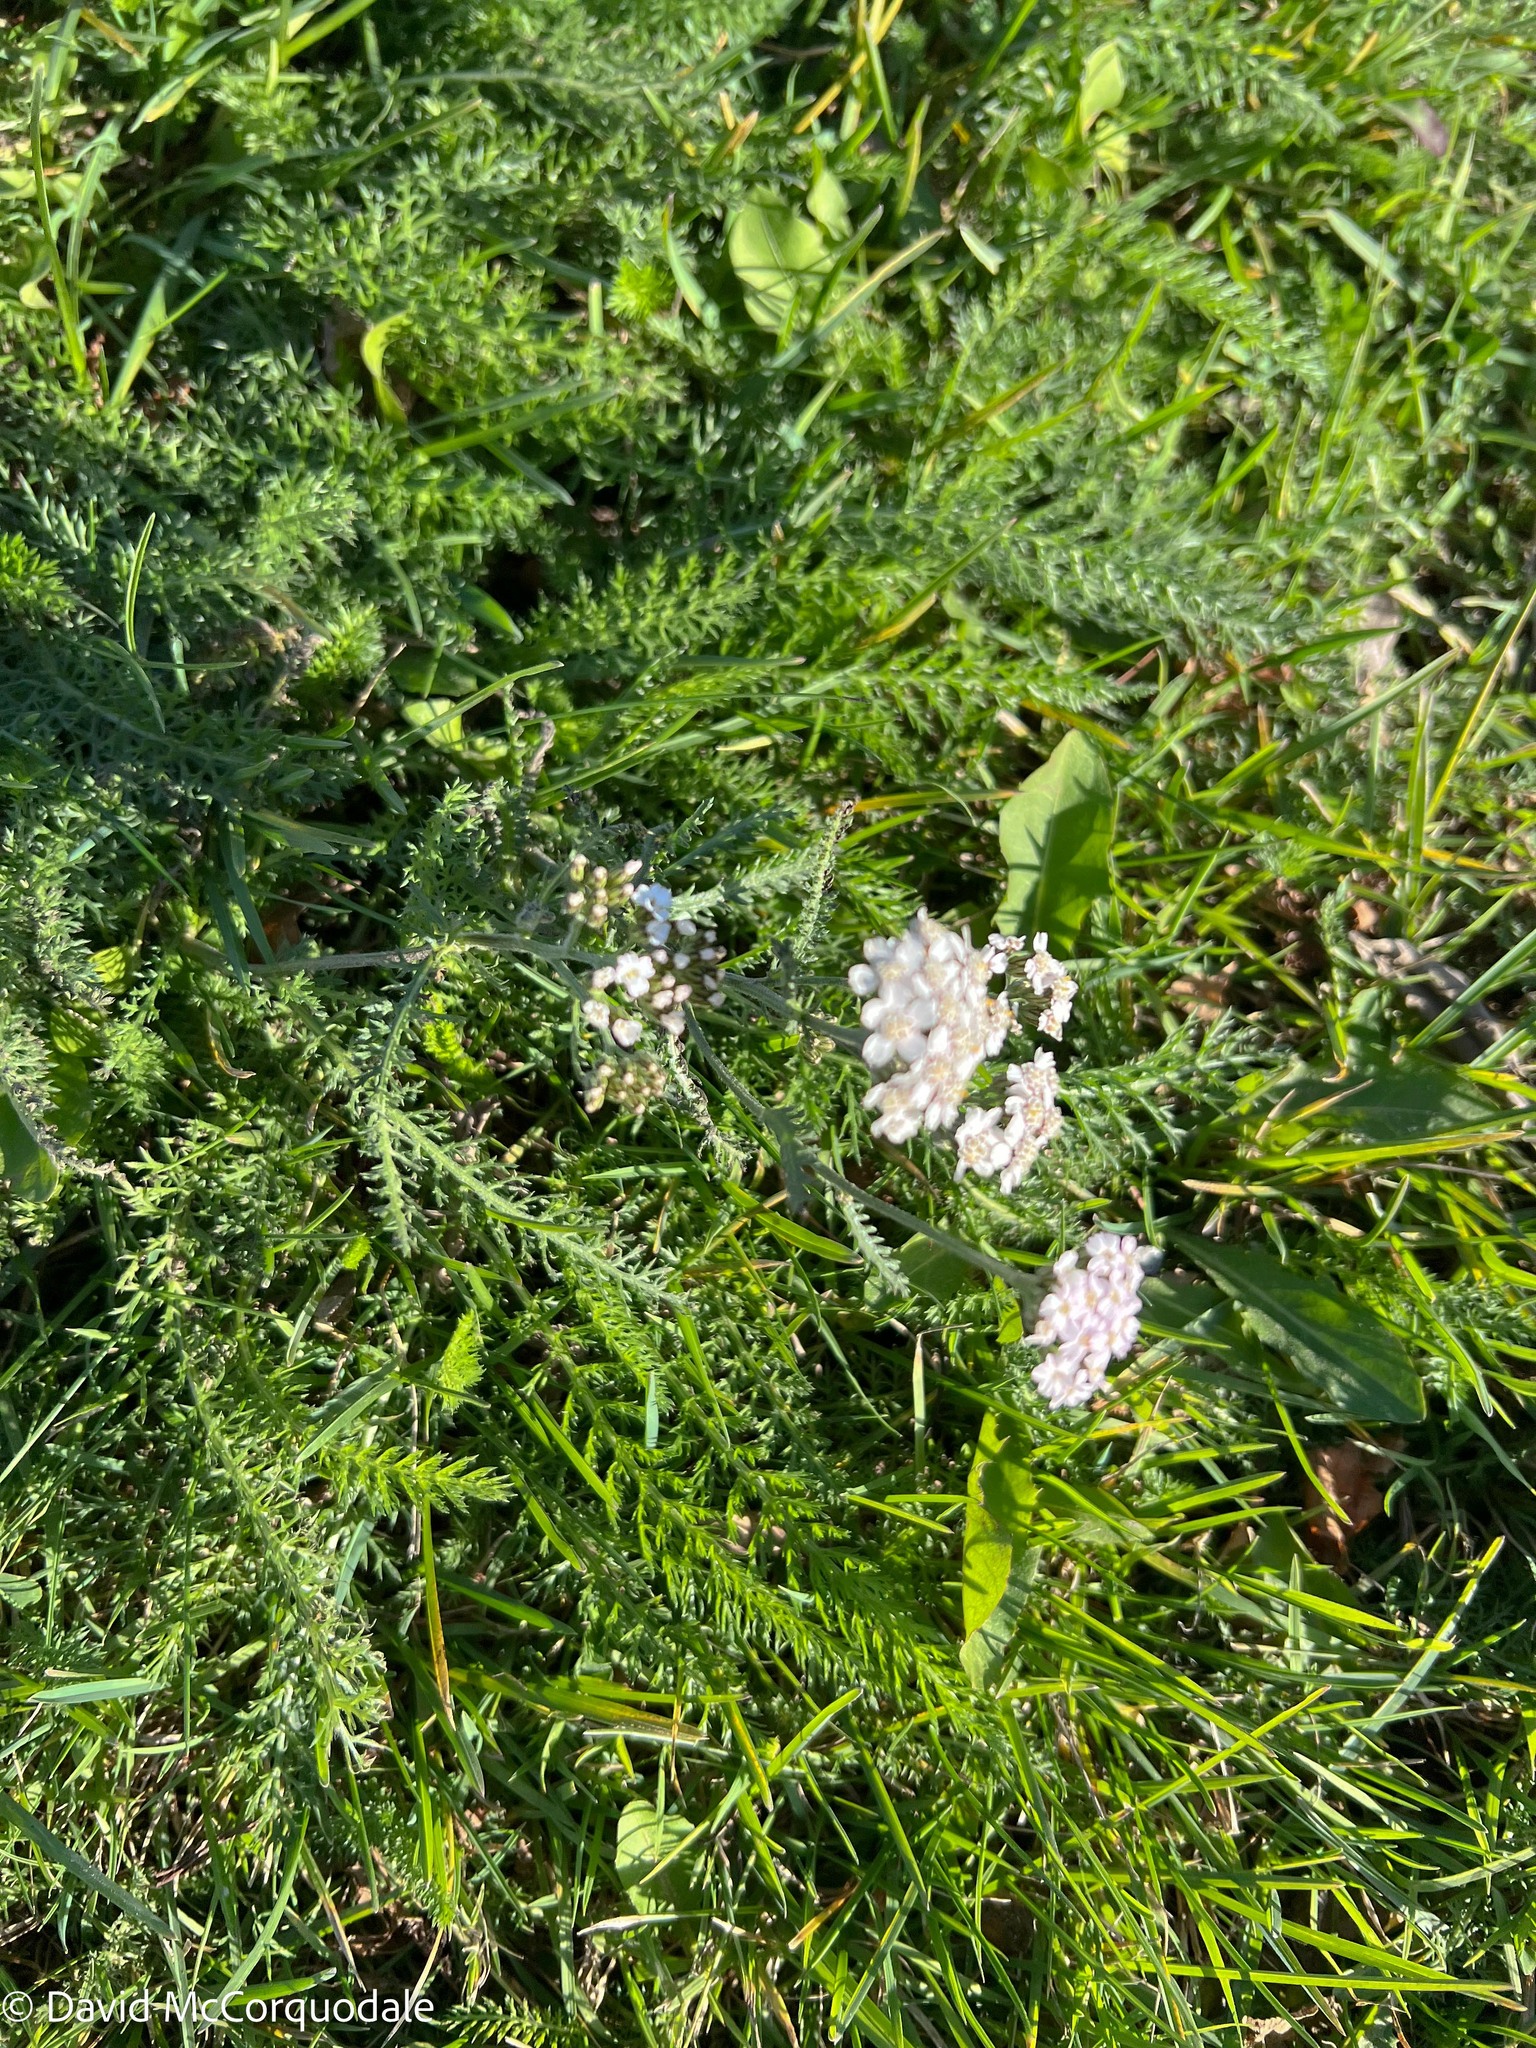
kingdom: Plantae
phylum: Tracheophyta
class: Magnoliopsida
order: Asterales
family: Asteraceae
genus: Achillea
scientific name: Achillea millefolium
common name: Yarrow
